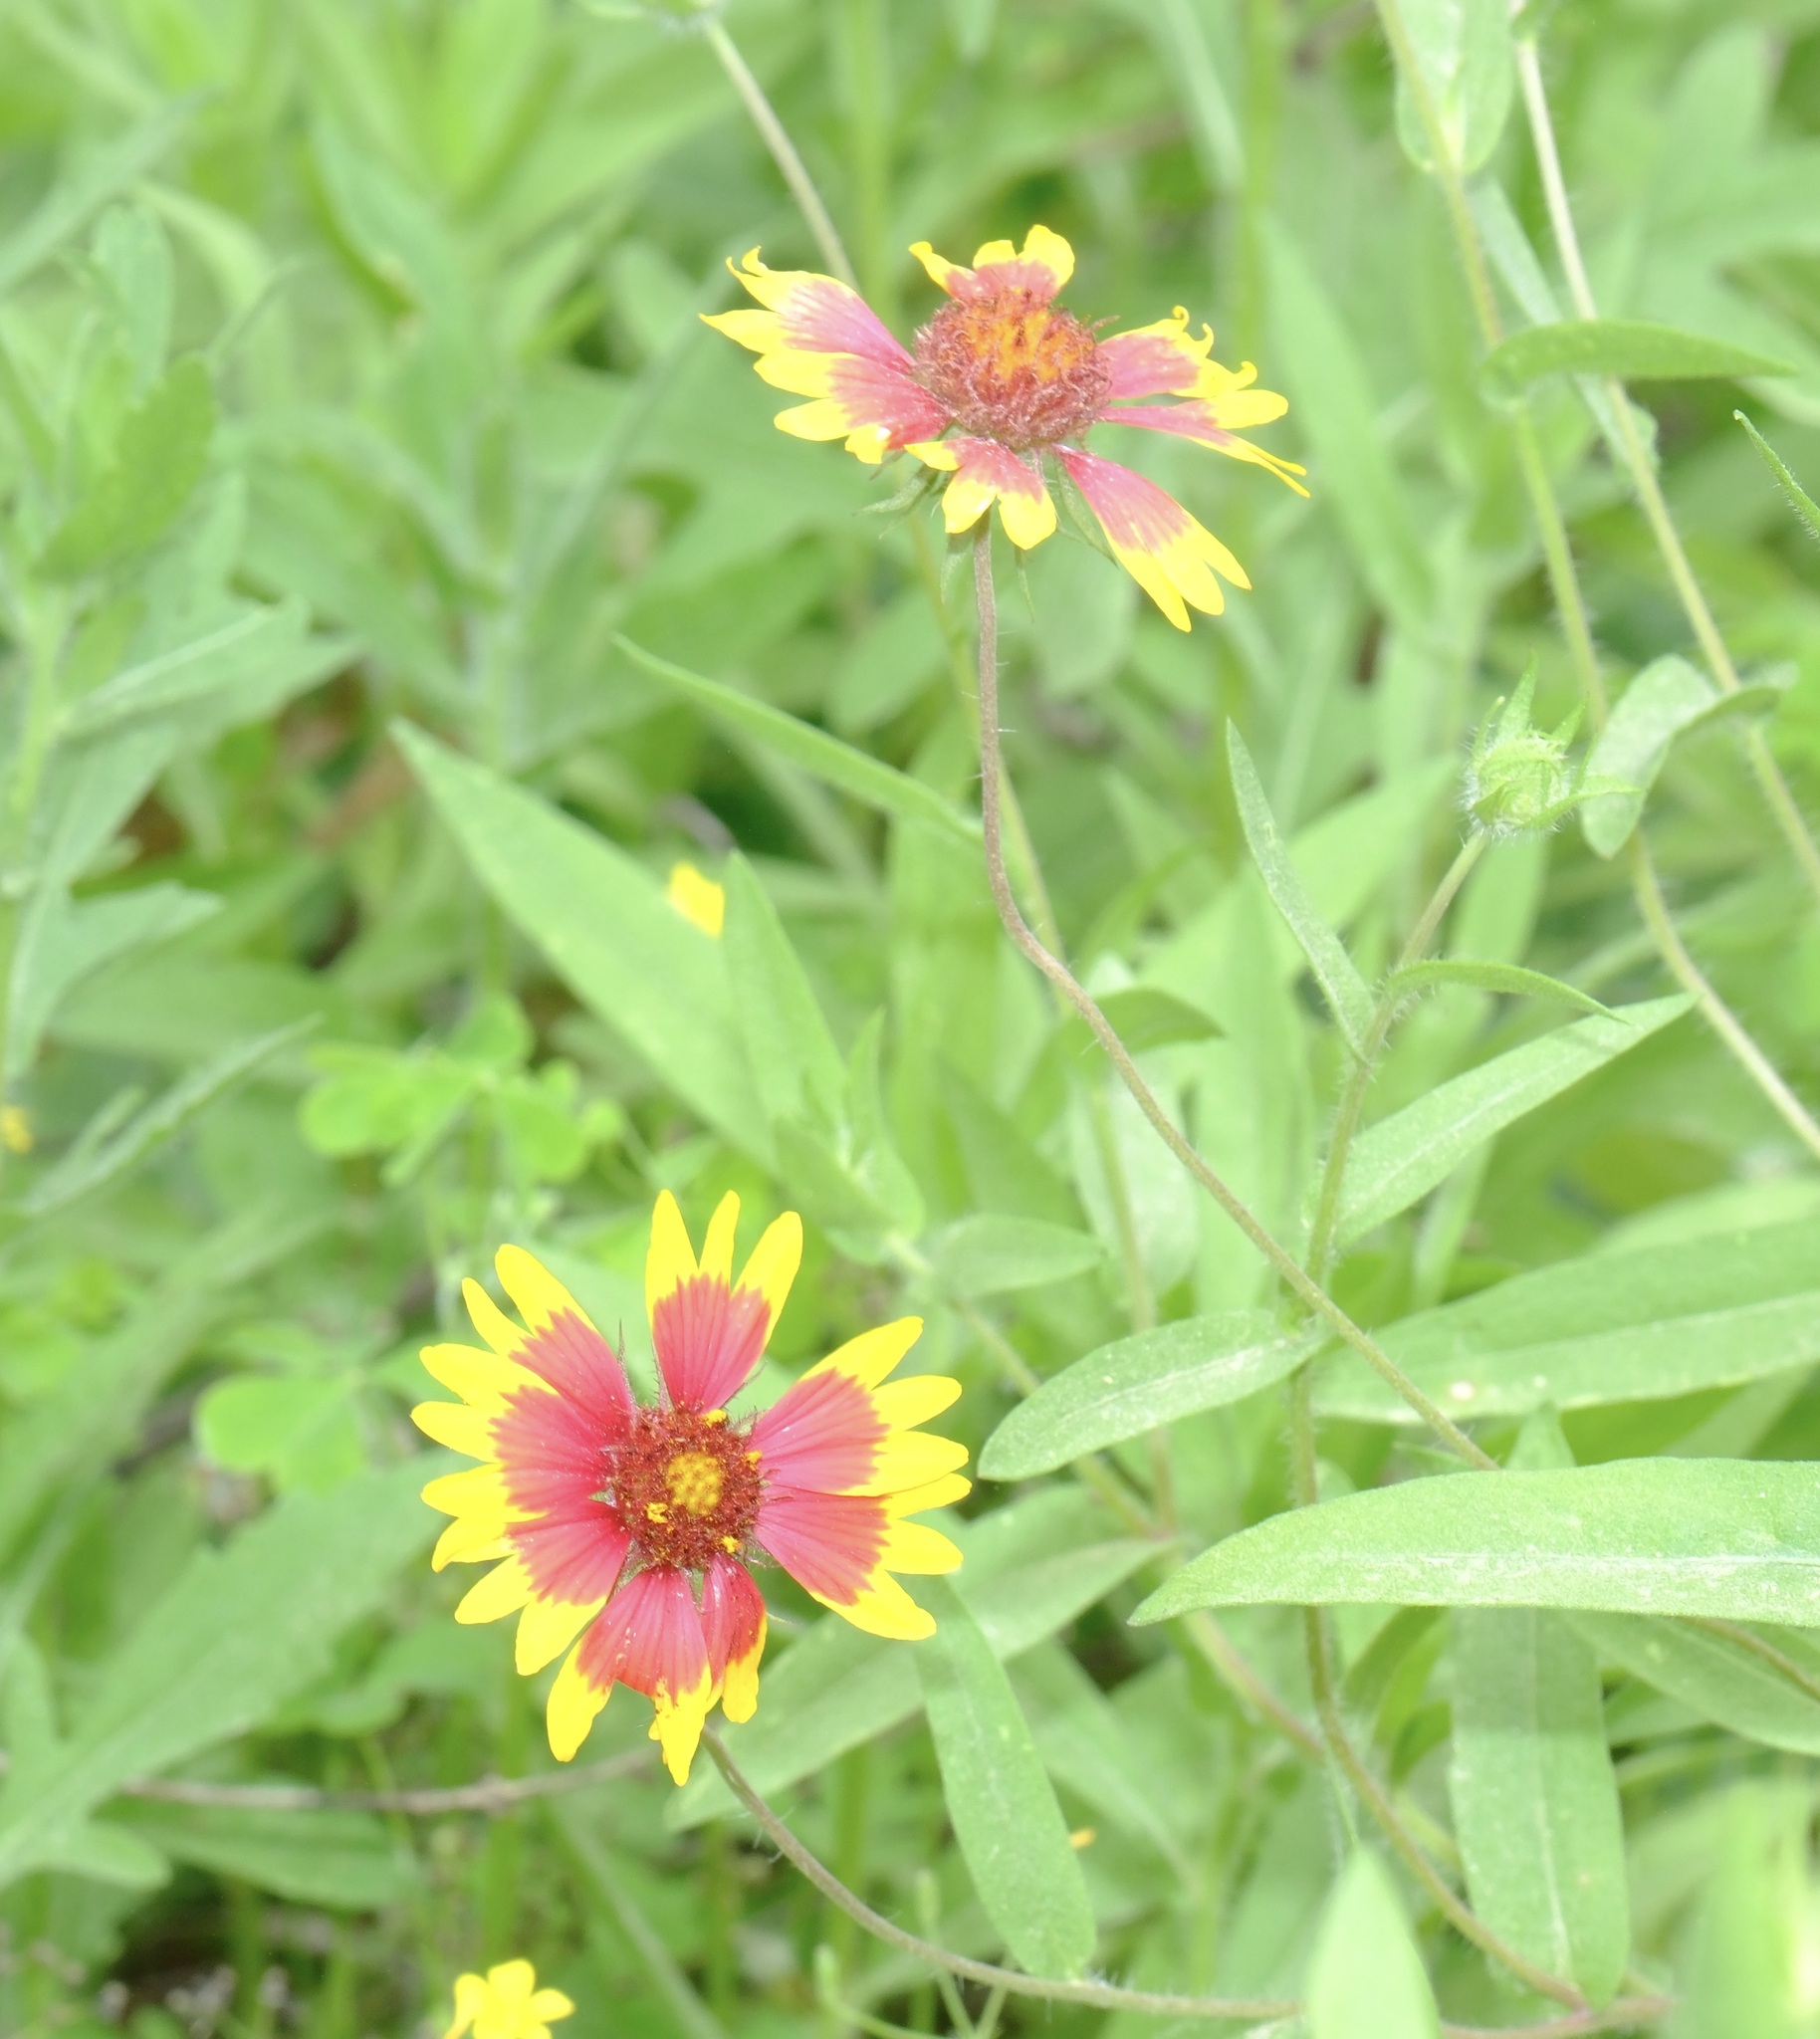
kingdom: Plantae
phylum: Tracheophyta
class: Magnoliopsida
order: Asterales
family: Asteraceae
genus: Gaillardia
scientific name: Gaillardia pulchella
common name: Firewheel
